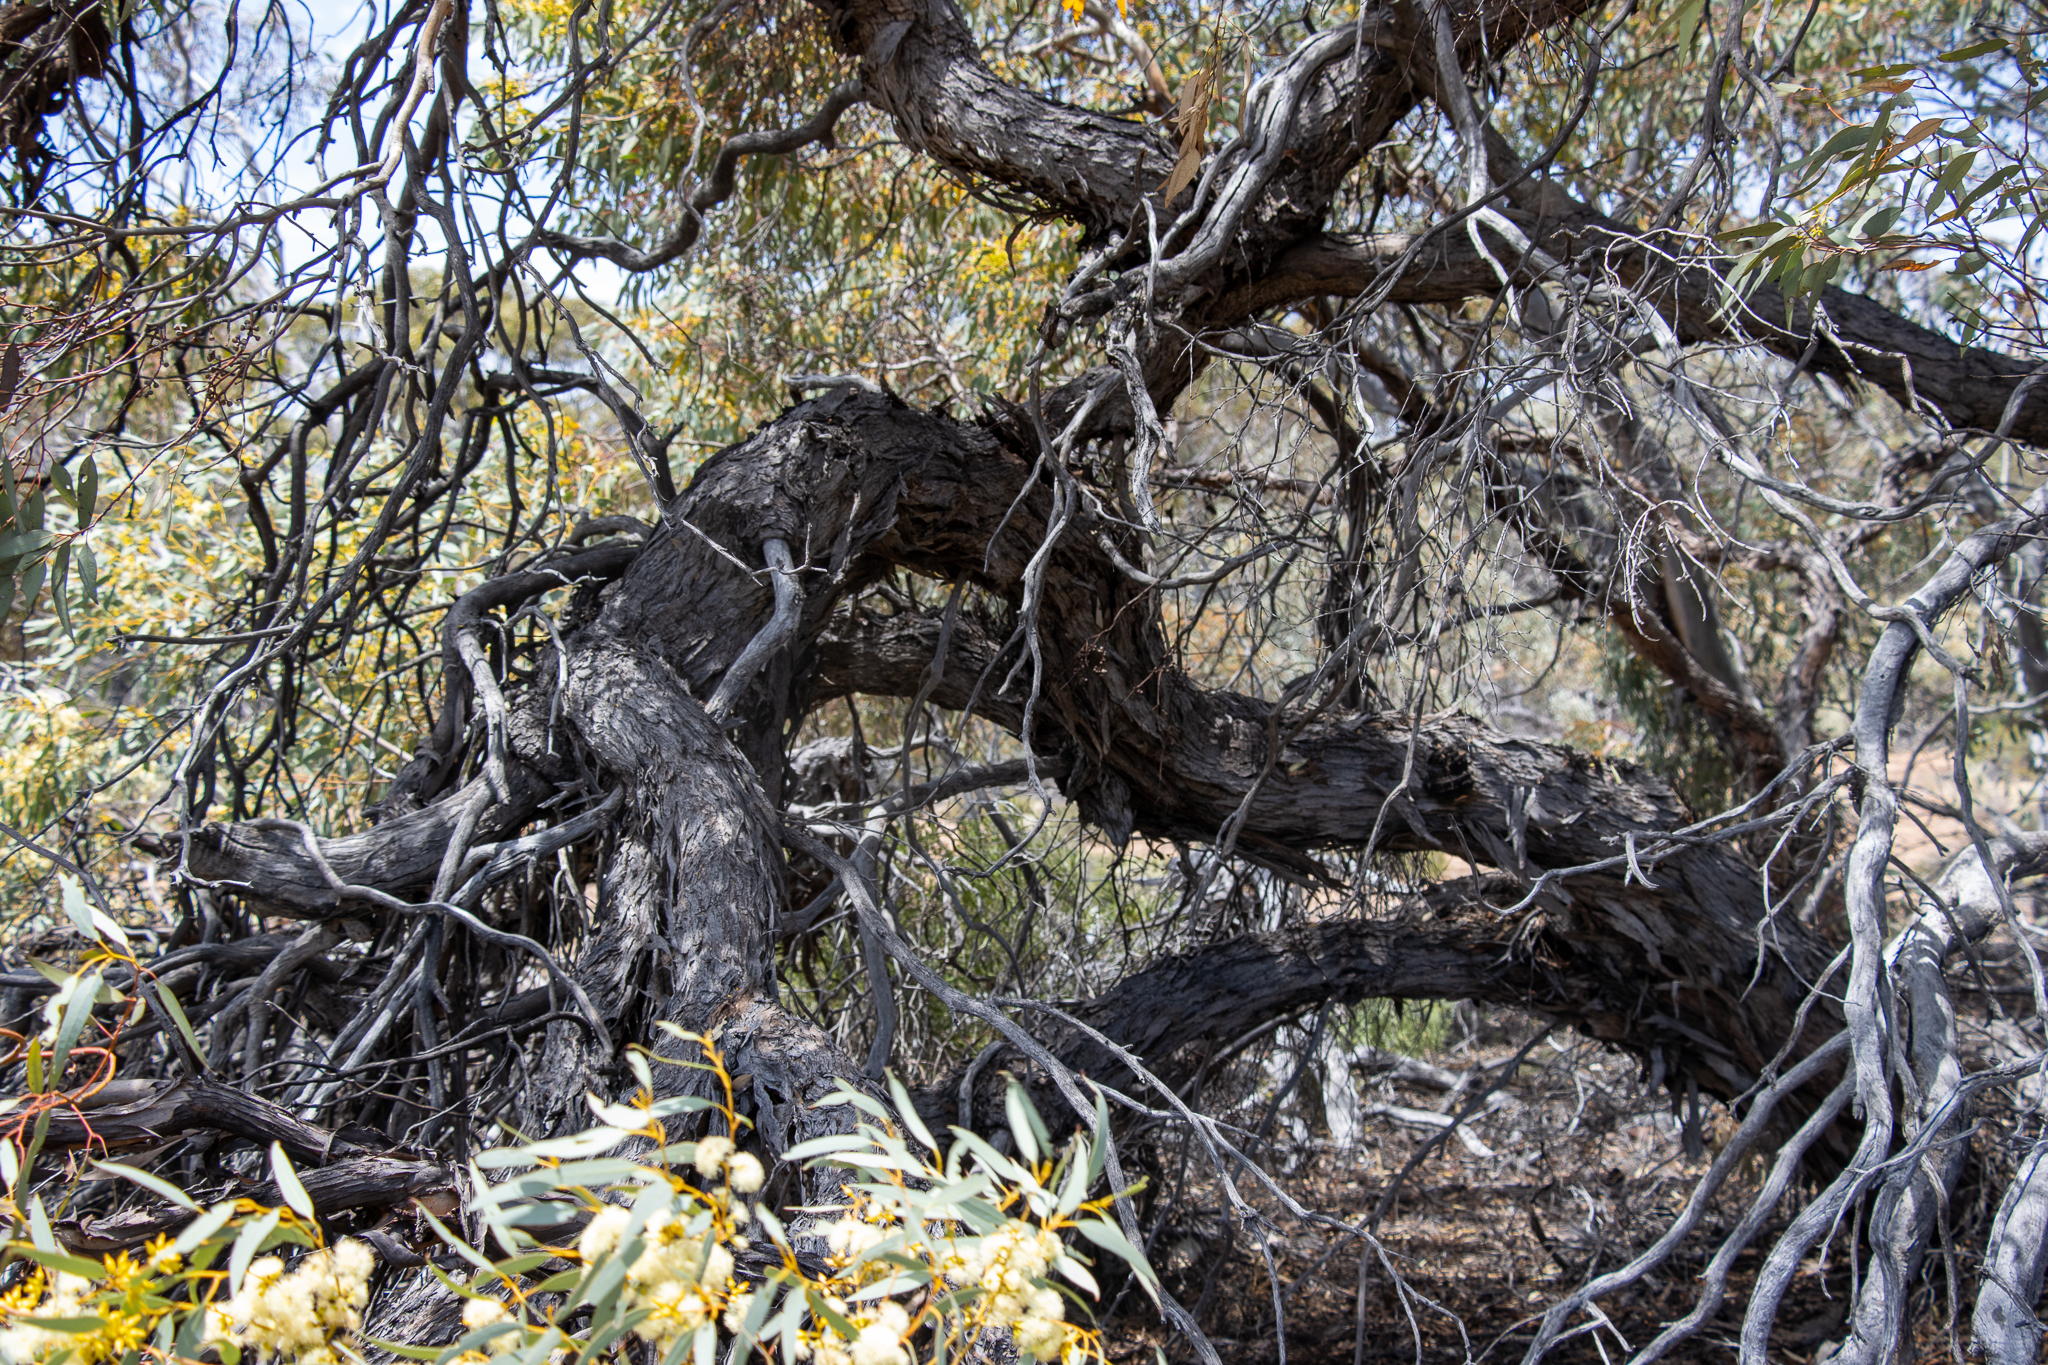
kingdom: Plantae
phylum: Tracheophyta
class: Magnoliopsida
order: Myrtales
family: Myrtaceae
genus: Eucalyptus
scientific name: Eucalyptus yalatensis
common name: Yalata mallee
